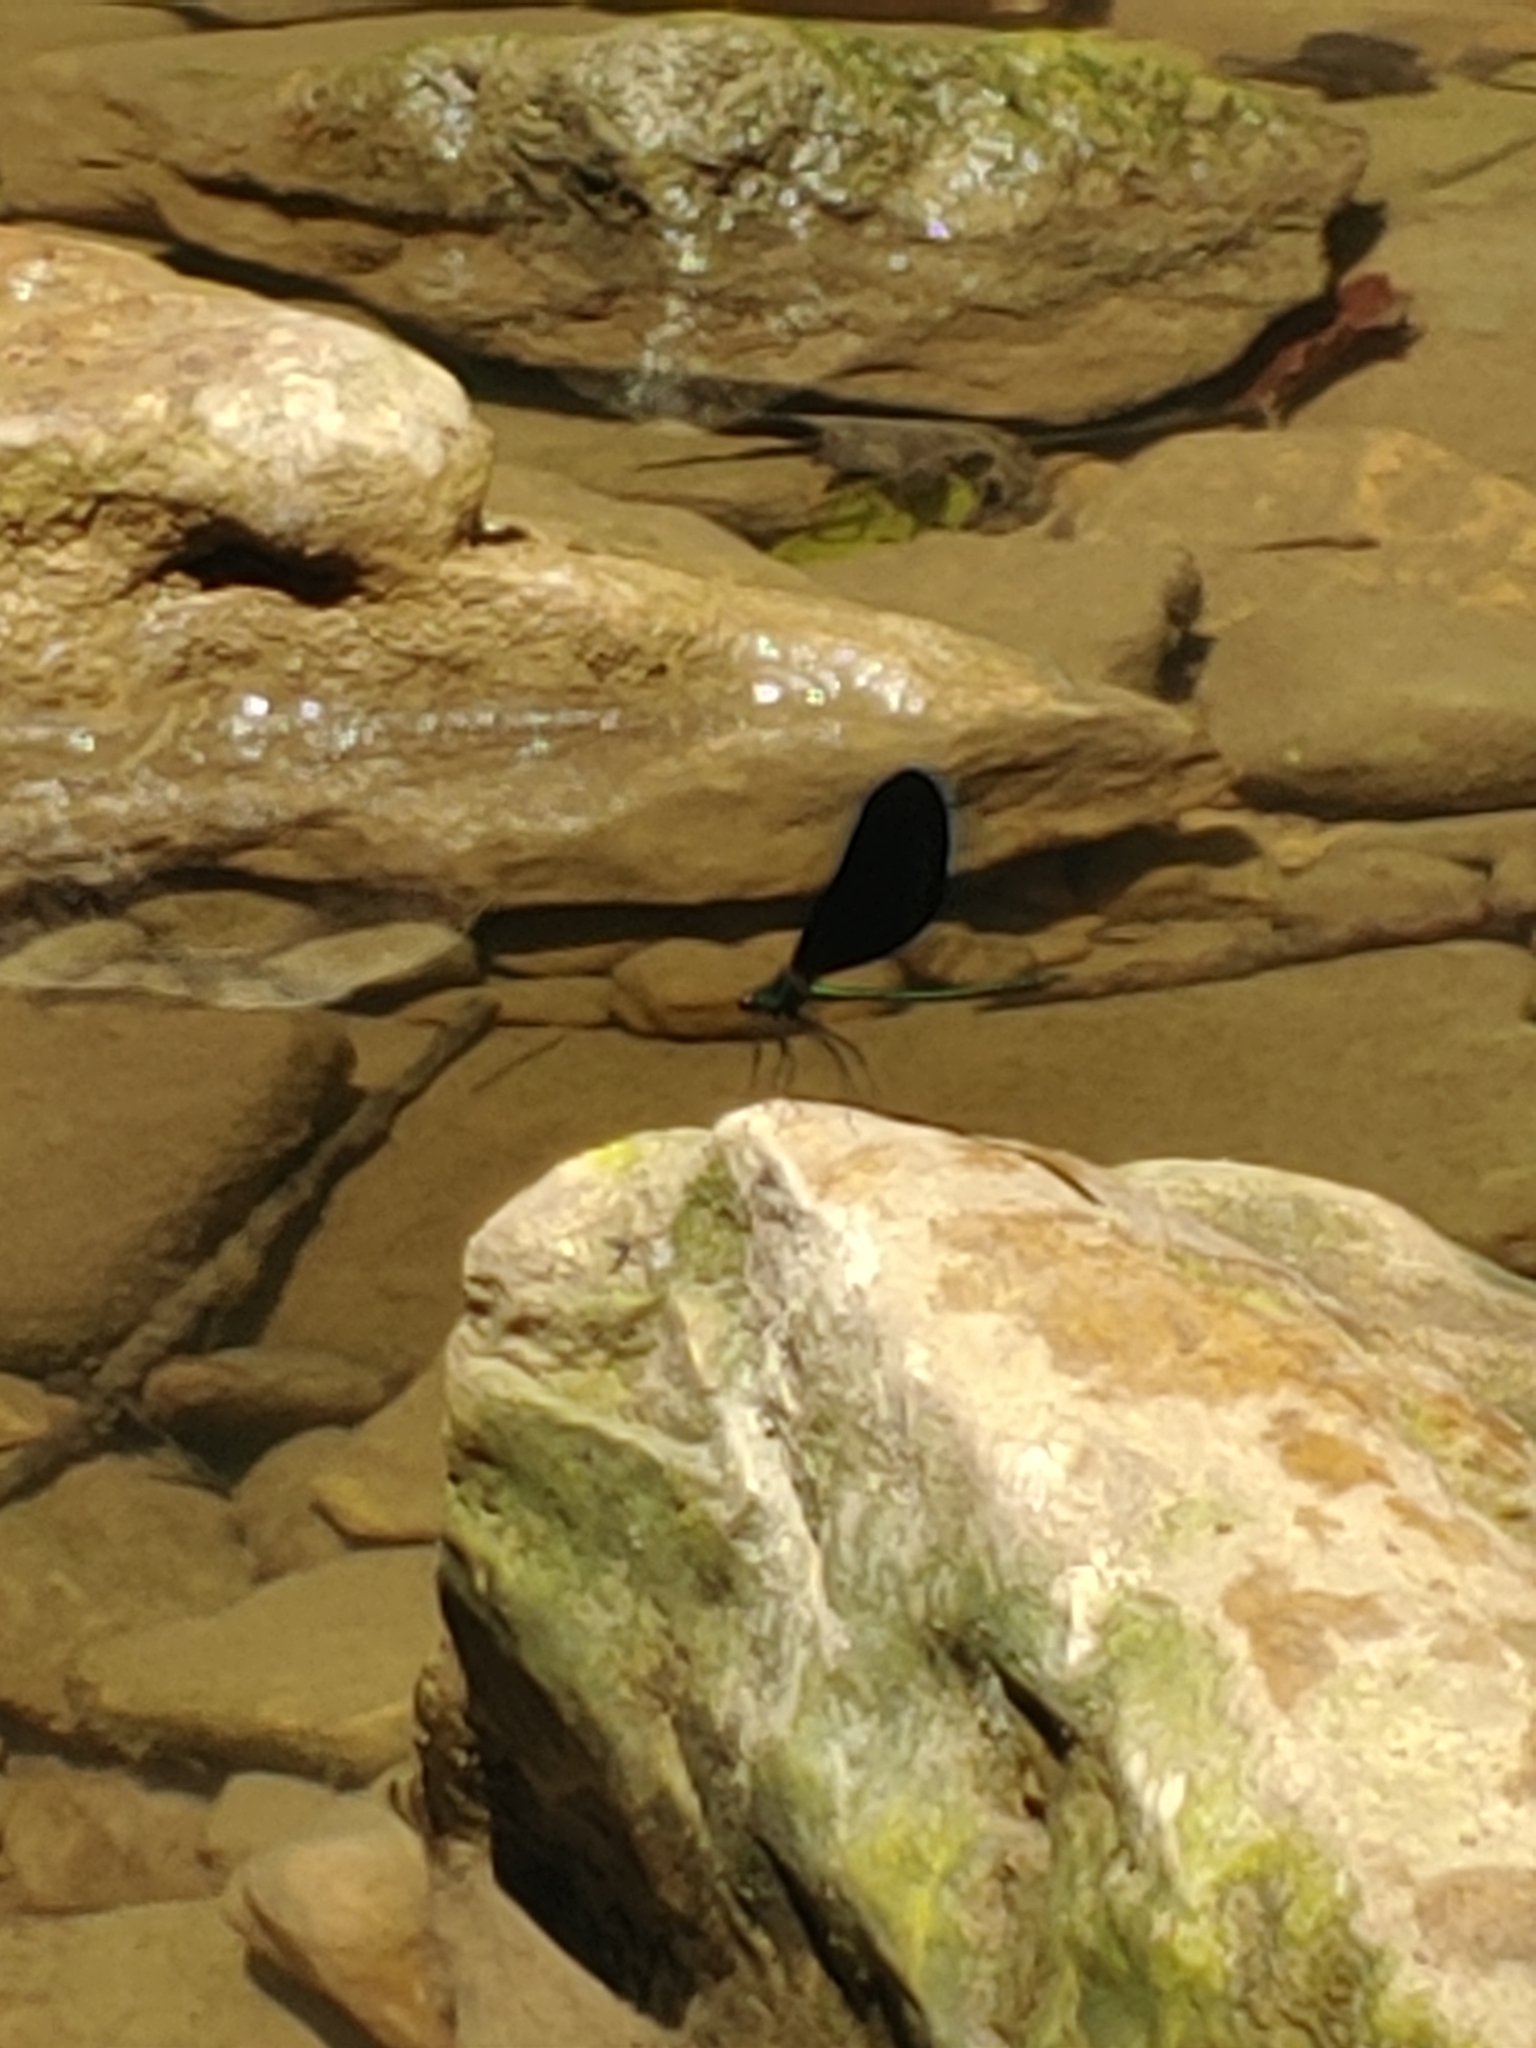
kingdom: Animalia
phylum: Arthropoda
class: Insecta
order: Odonata
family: Calopterygidae
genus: Calopteryx
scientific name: Calopteryx maculata
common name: Ebony jewelwing
